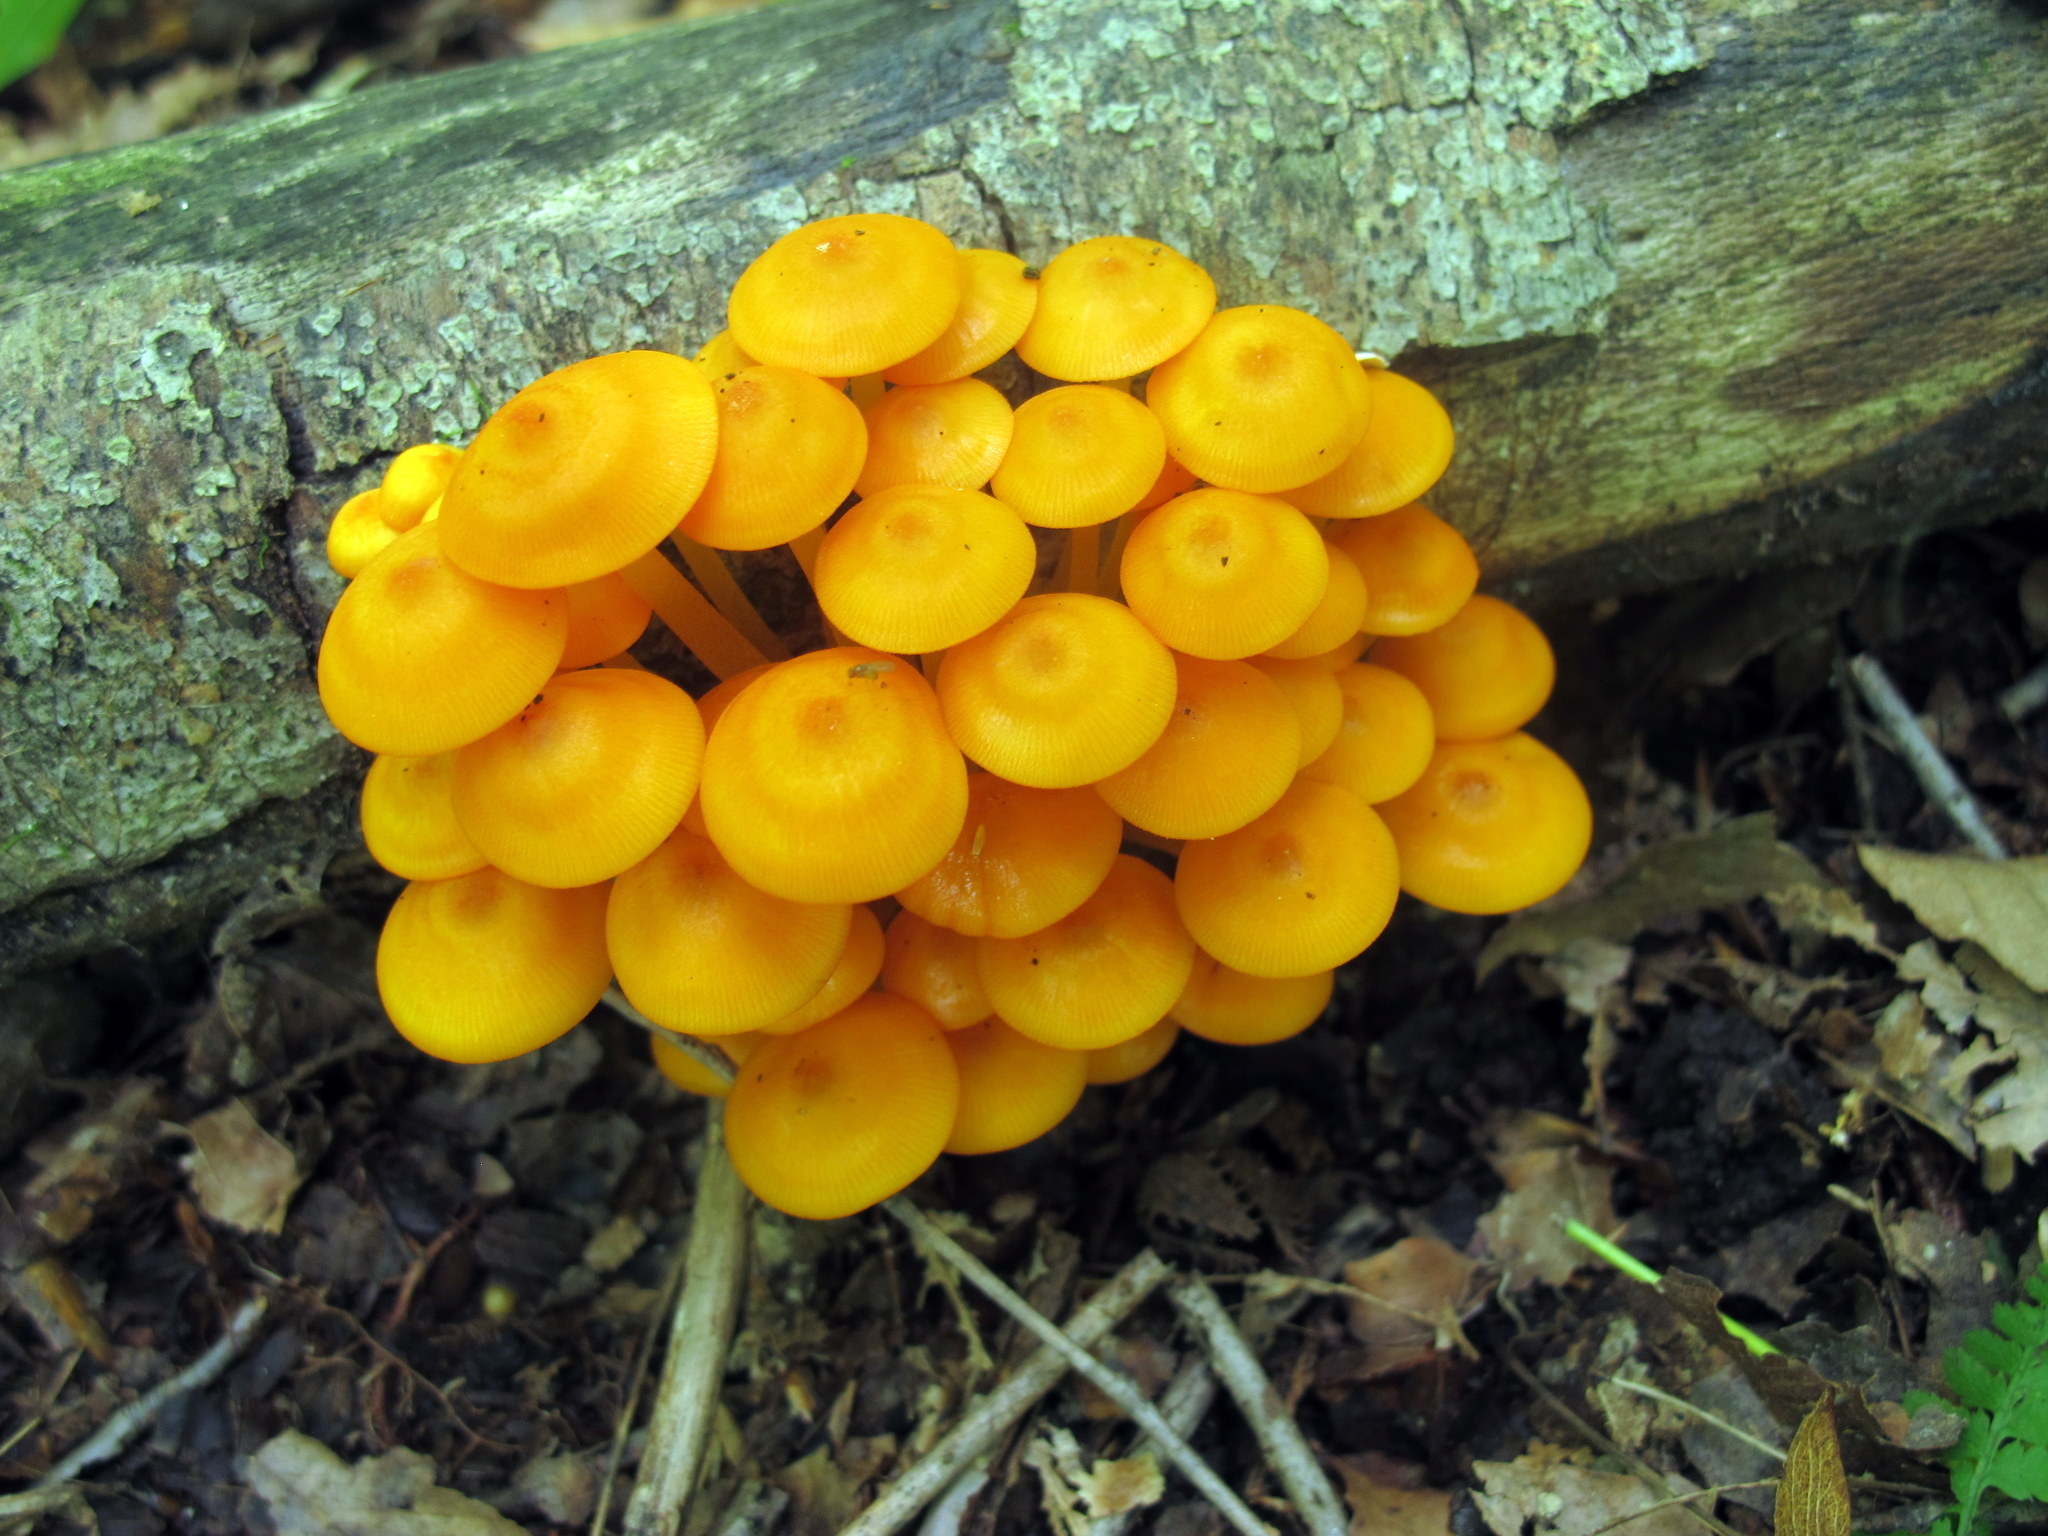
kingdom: Fungi
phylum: Basidiomycota
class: Agaricomycetes
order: Agaricales
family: Mycenaceae
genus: Mycena
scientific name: Mycena leaiana
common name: Orange mycena
